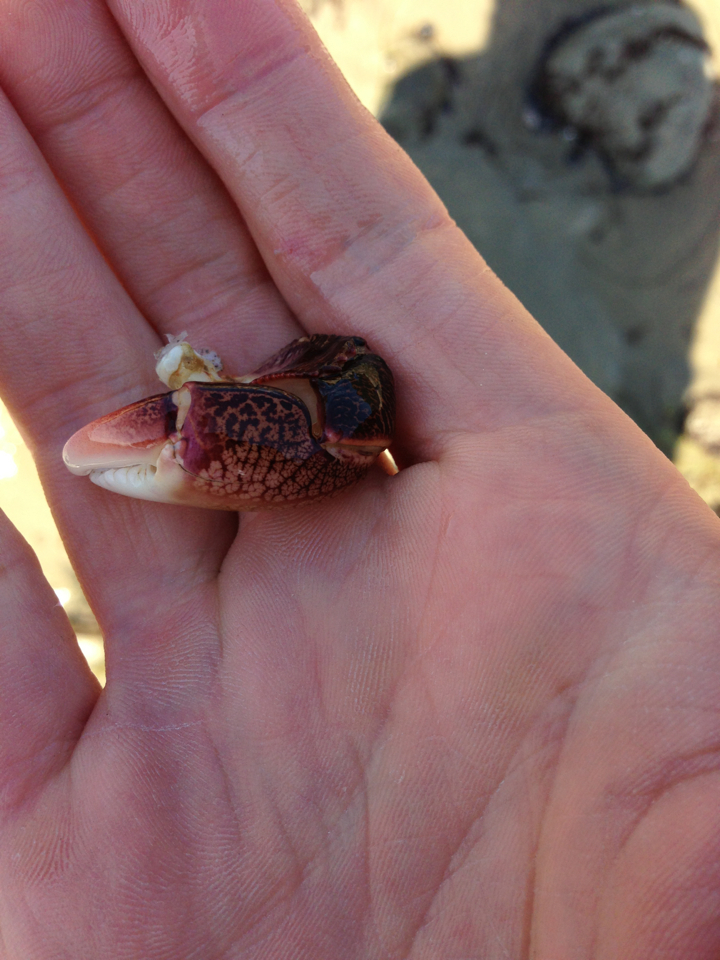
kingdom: Animalia
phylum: Arthropoda
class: Malacostraca
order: Decapoda
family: Grapsidae
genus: Pachygrapsus
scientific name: Pachygrapsus crassipes
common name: Striped shore crab
